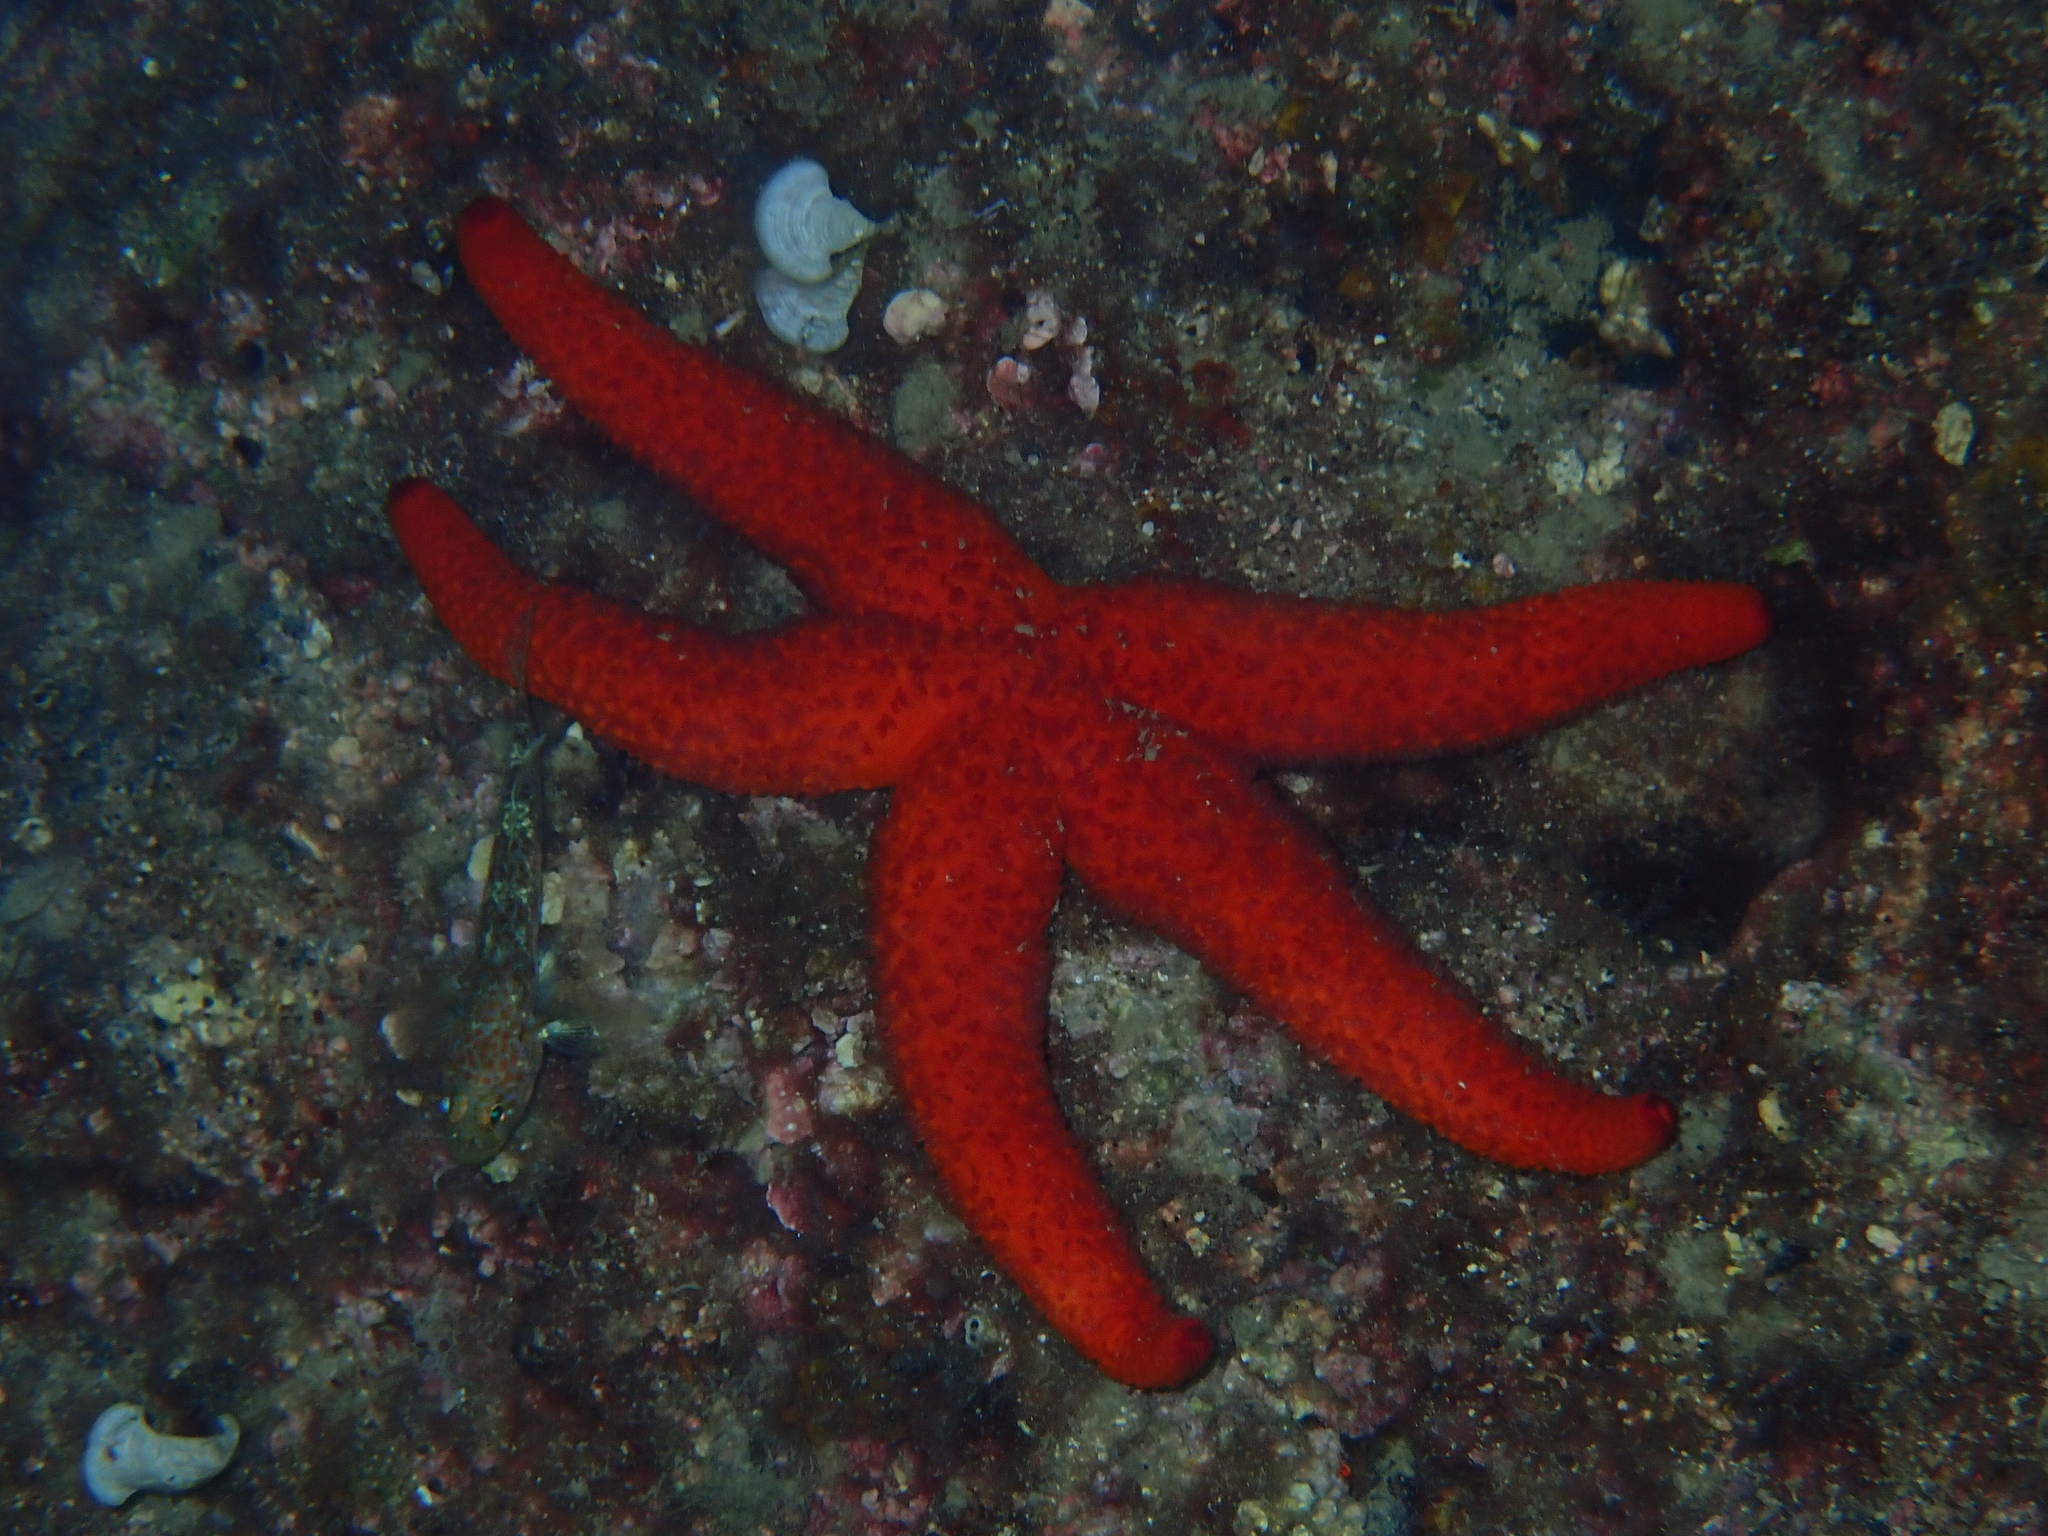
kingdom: Animalia
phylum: Echinodermata
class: Asteroidea
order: Spinulosida
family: Echinasteridae
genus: Echinaster
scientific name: Echinaster sepositus
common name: Red starfish
